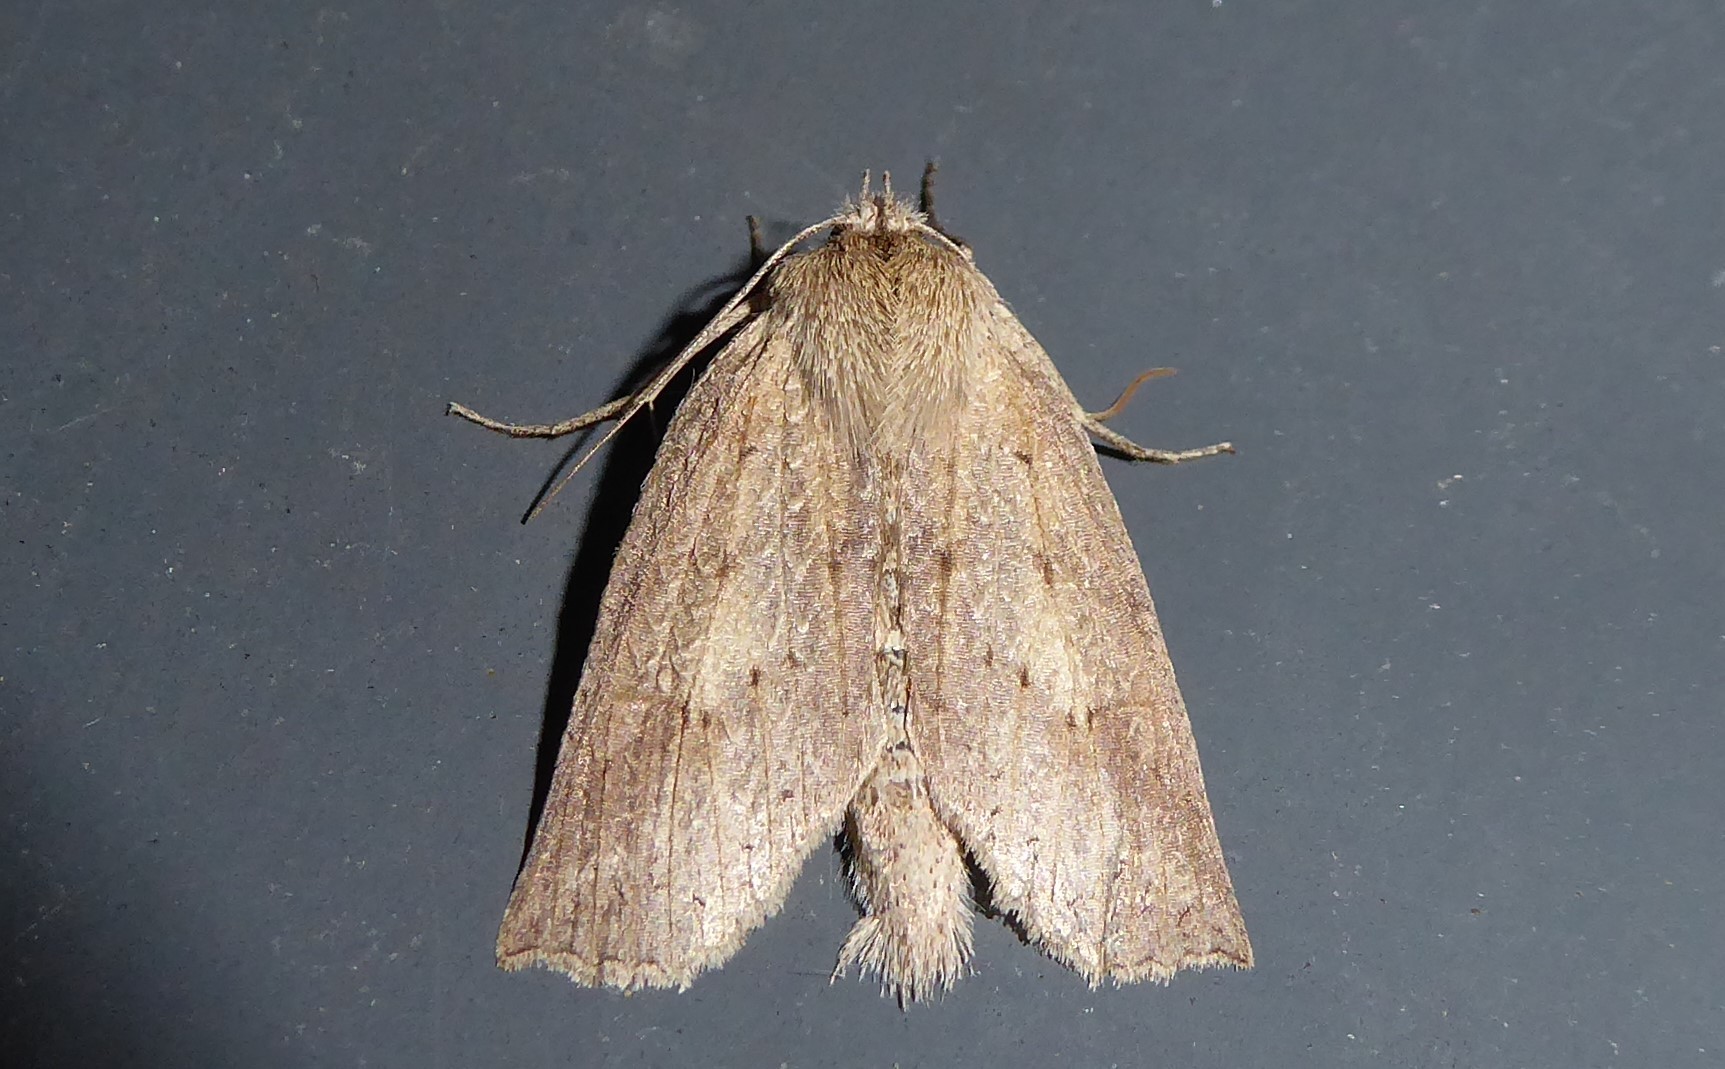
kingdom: Animalia
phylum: Arthropoda
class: Insecta
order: Lepidoptera
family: Geometridae
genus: Declana
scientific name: Declana leptomera
